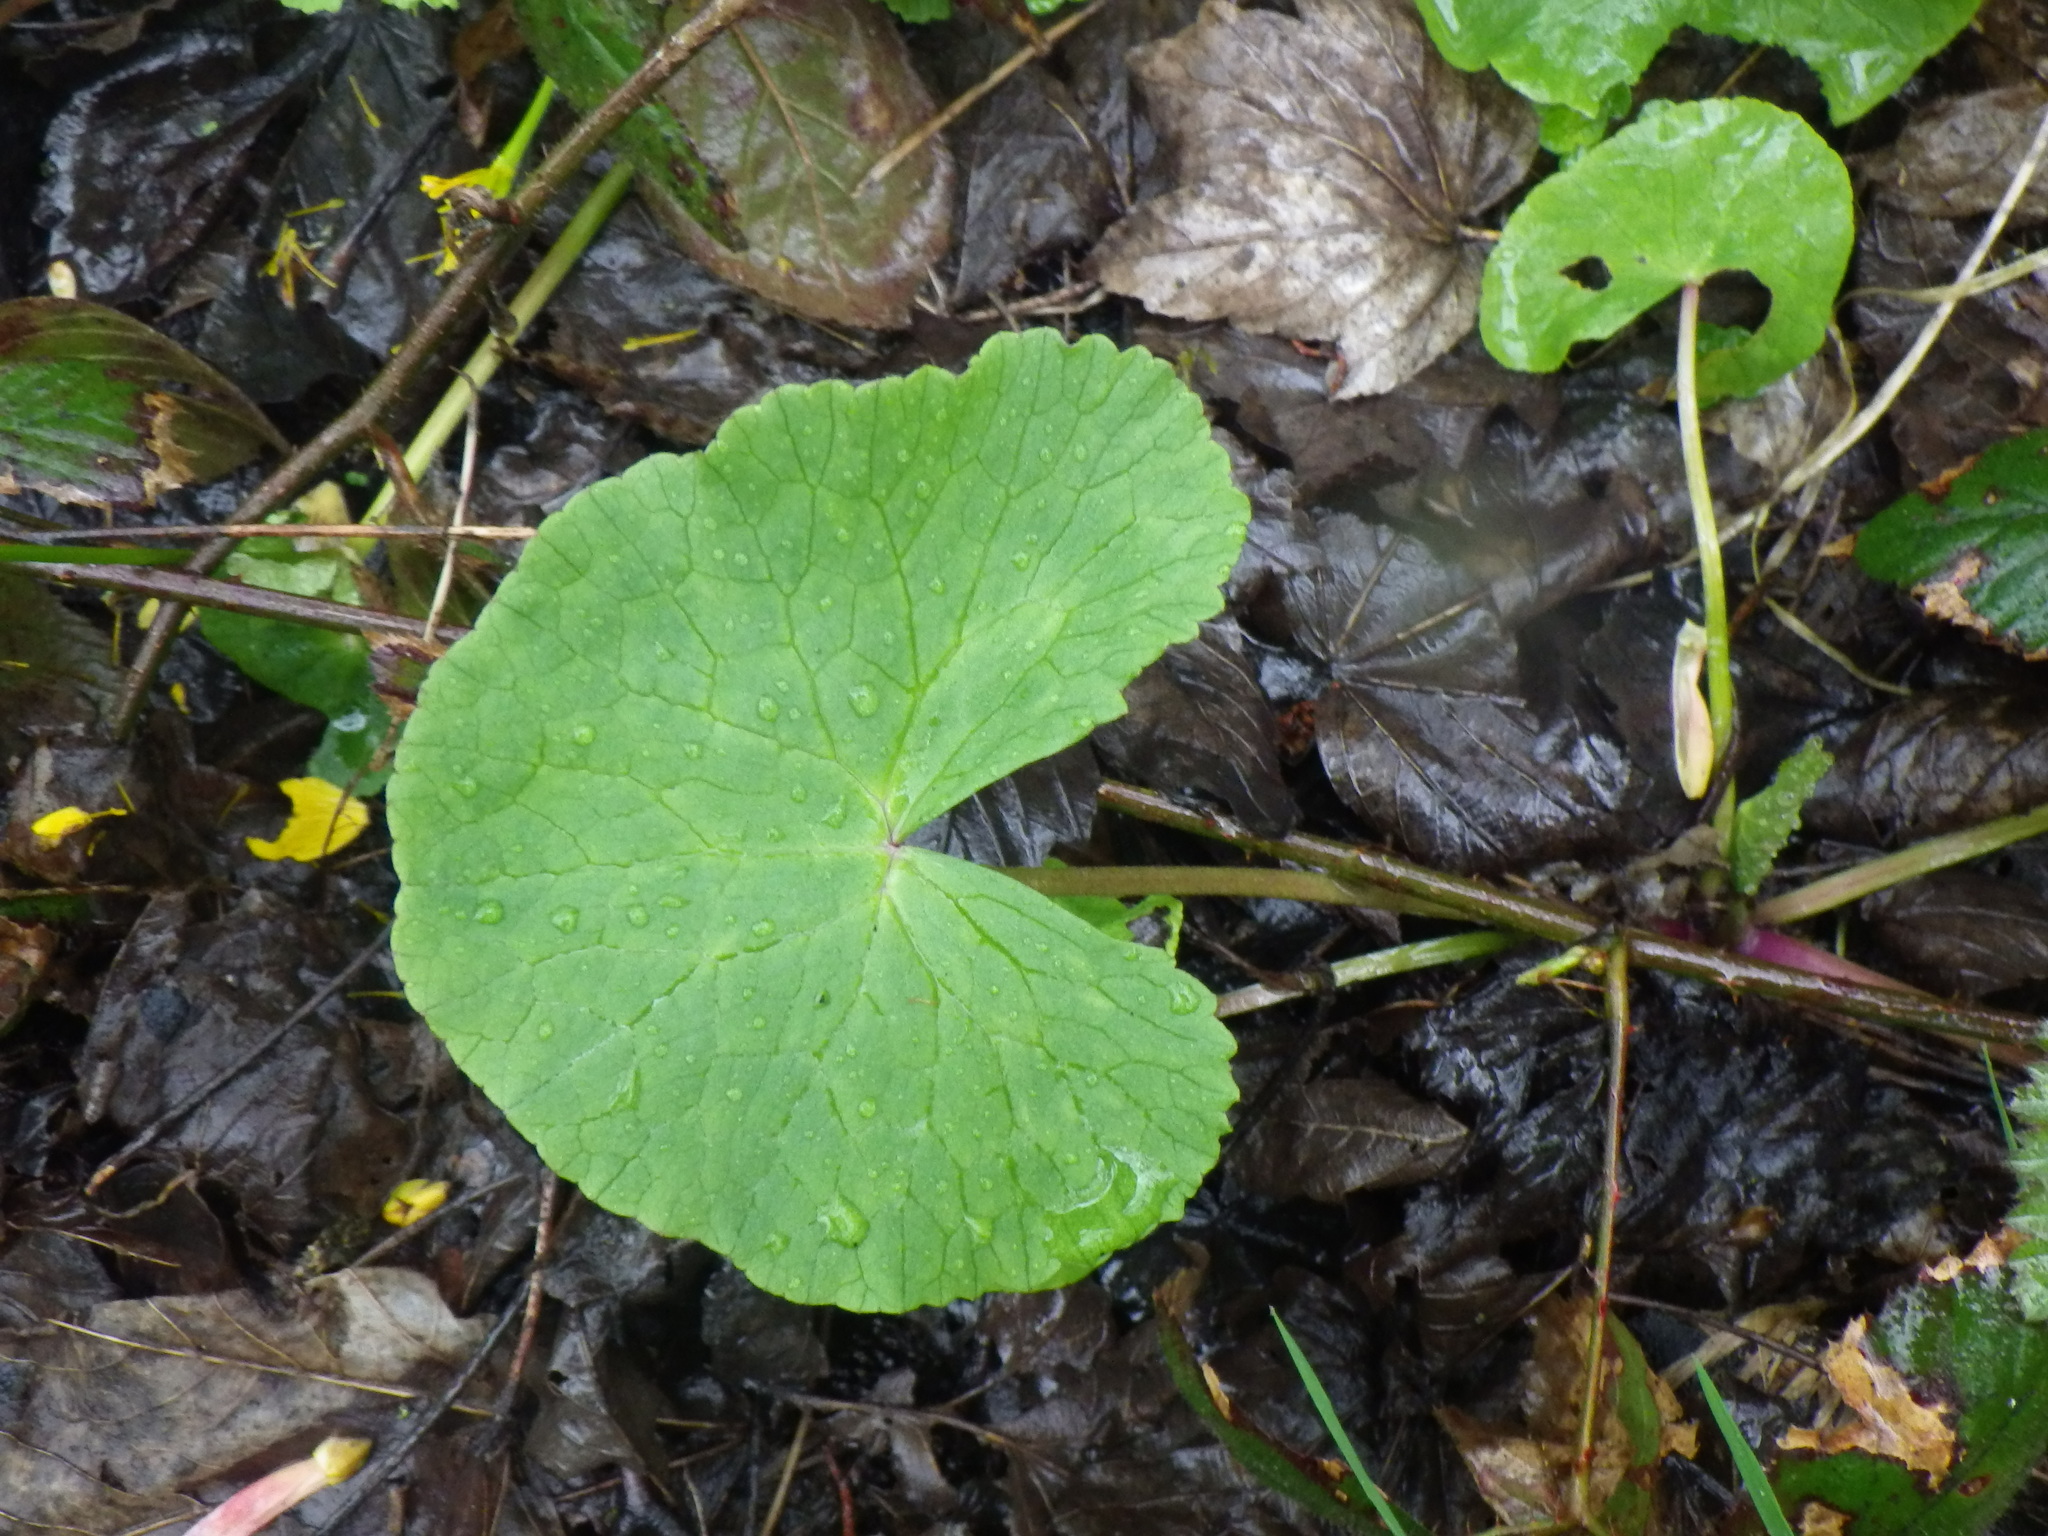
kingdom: Plantae
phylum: Tracheophyta
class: Magnoliopsida
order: Ranunculales
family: Ranunculaceae
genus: Caltha
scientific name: Caltha palustris
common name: Marsh marigold
